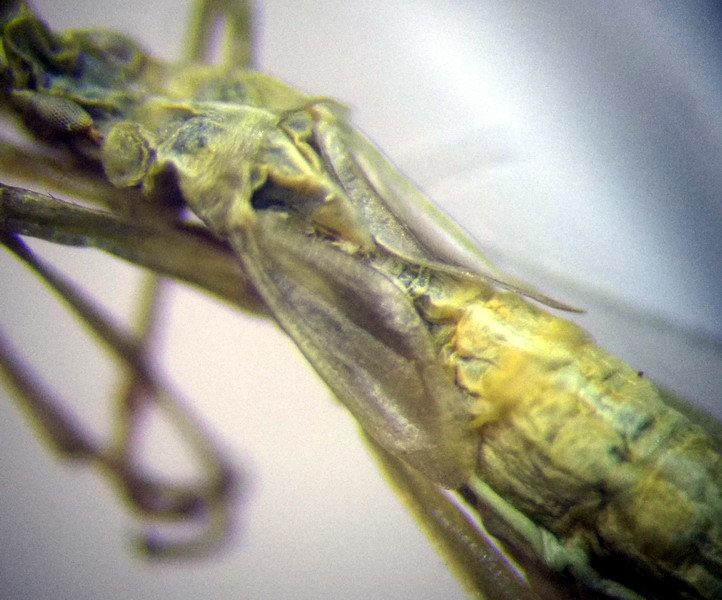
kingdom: Animalia
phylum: Arthropoda
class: Insecta
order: Hemiptera
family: Miridae
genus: Chorosomella
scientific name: Chorosomella jakowleffi
